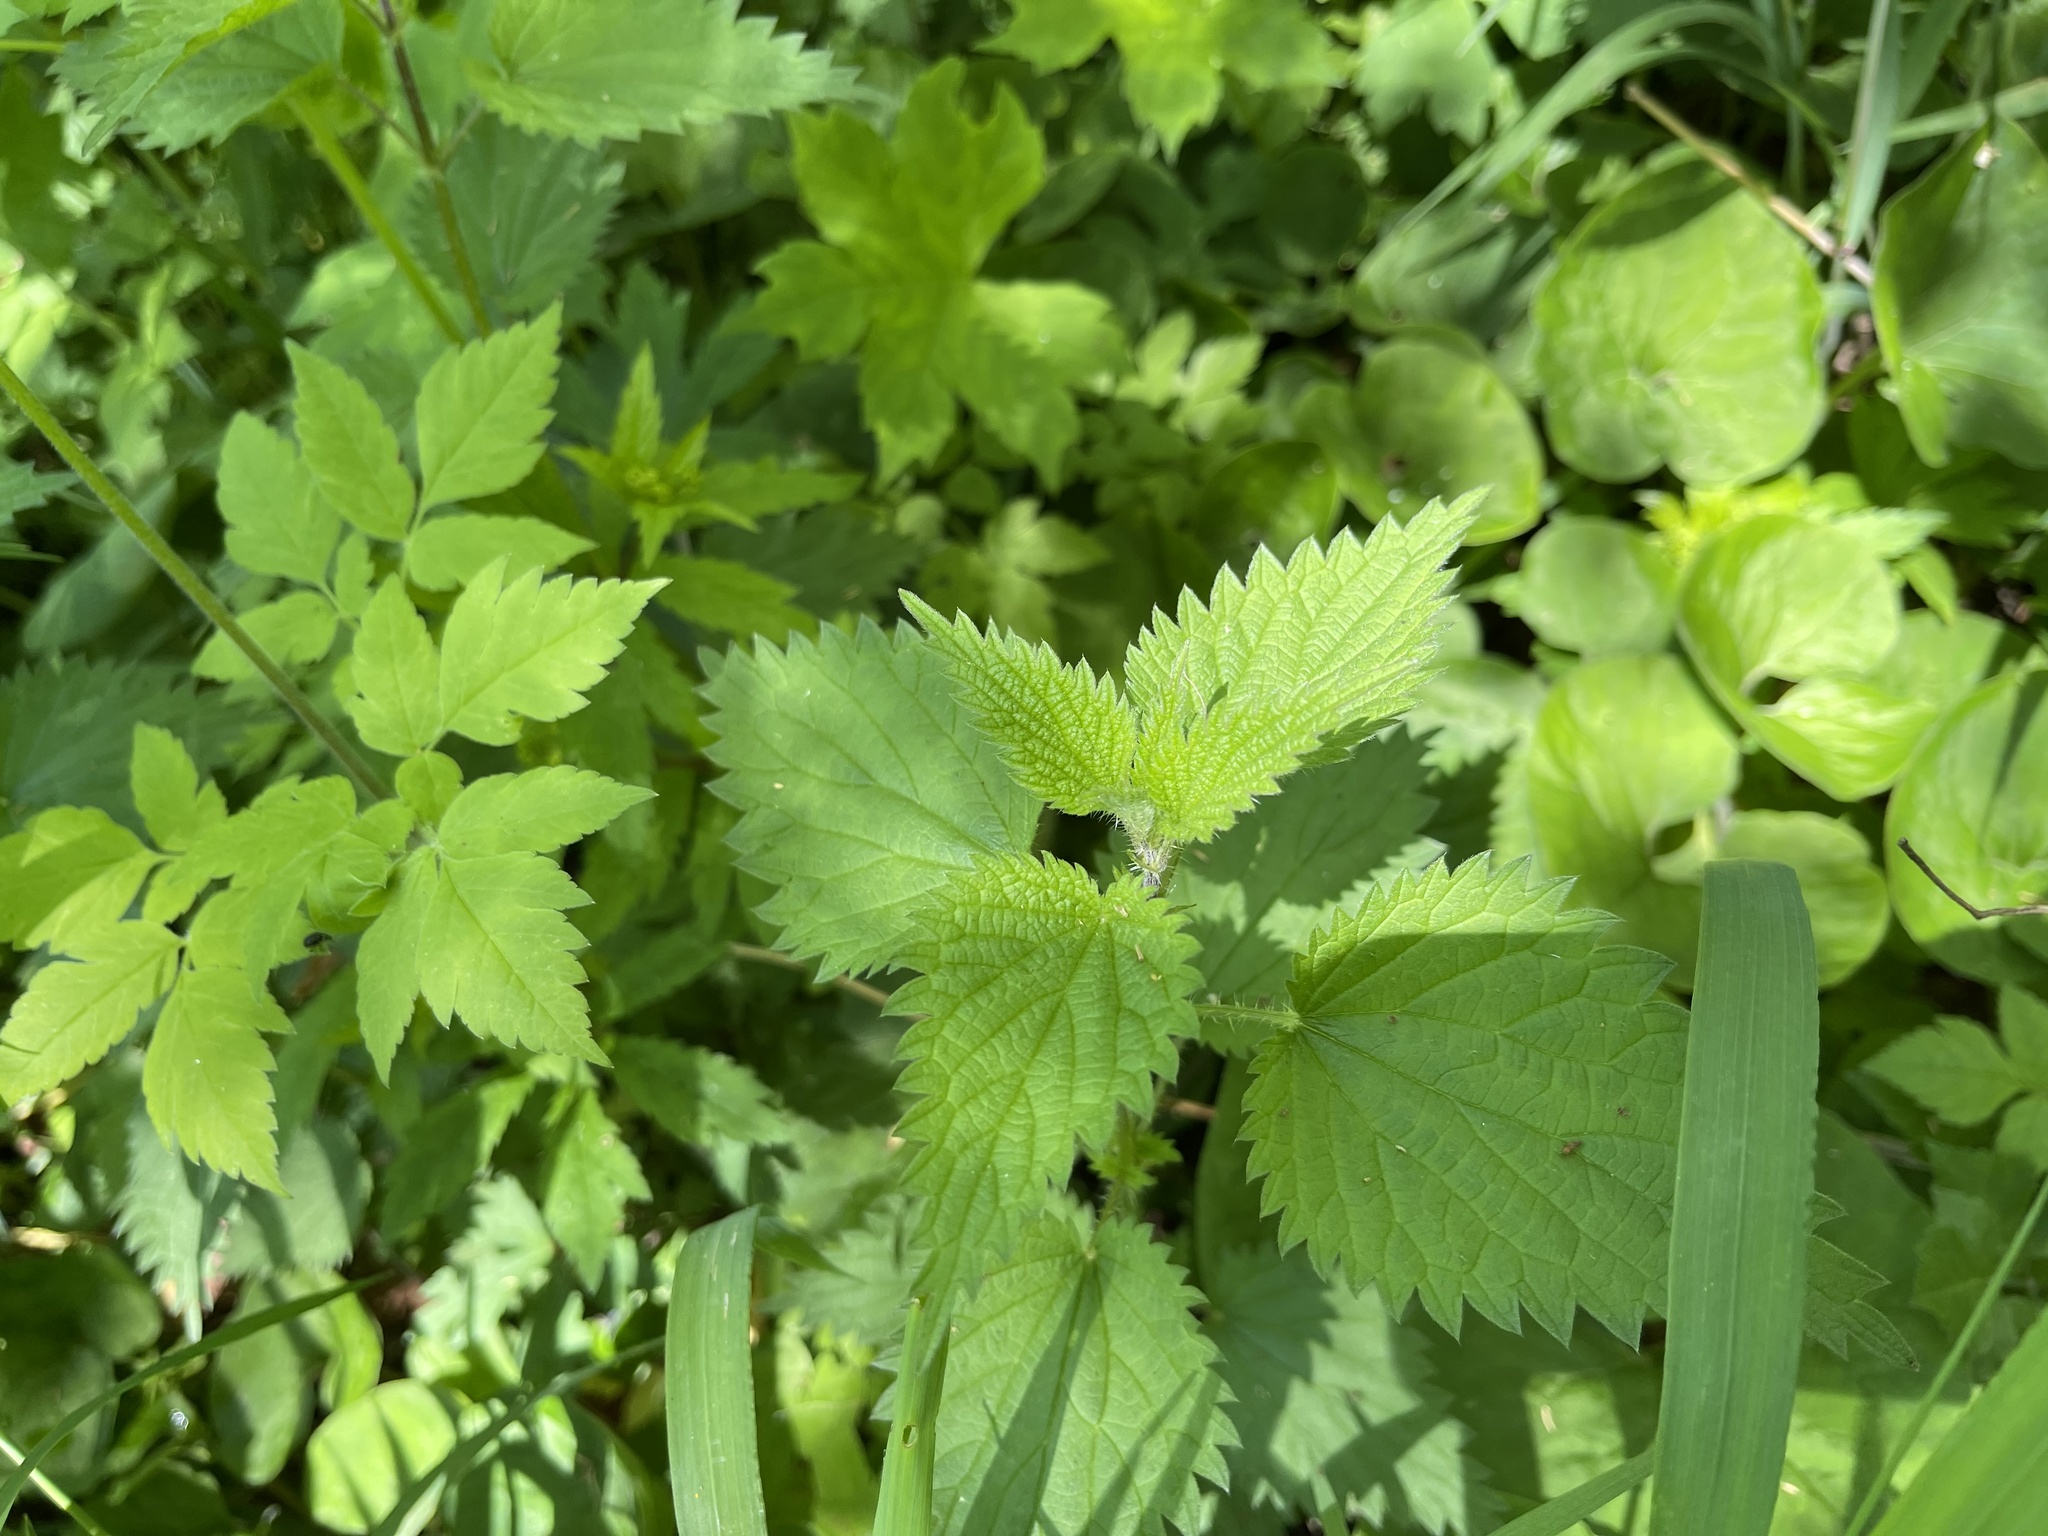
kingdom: Plantae
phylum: Tracheophyta
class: Magnoliopsida
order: Rosales
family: Urticaceae
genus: Urtica
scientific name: Urtica dioica
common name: Common nettle
